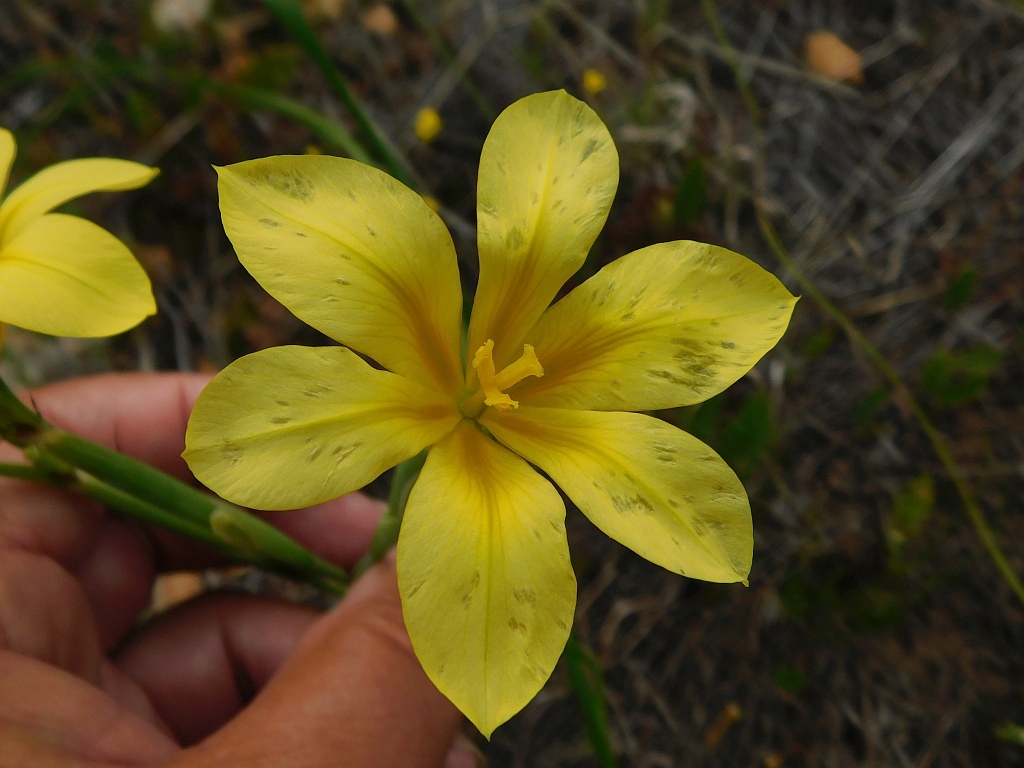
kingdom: Plantae
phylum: Tracheophyta
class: Liliopsida
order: Asparagales
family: Iridaceae
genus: Moraea
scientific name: Moraea ochroleuca
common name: Red tulp
